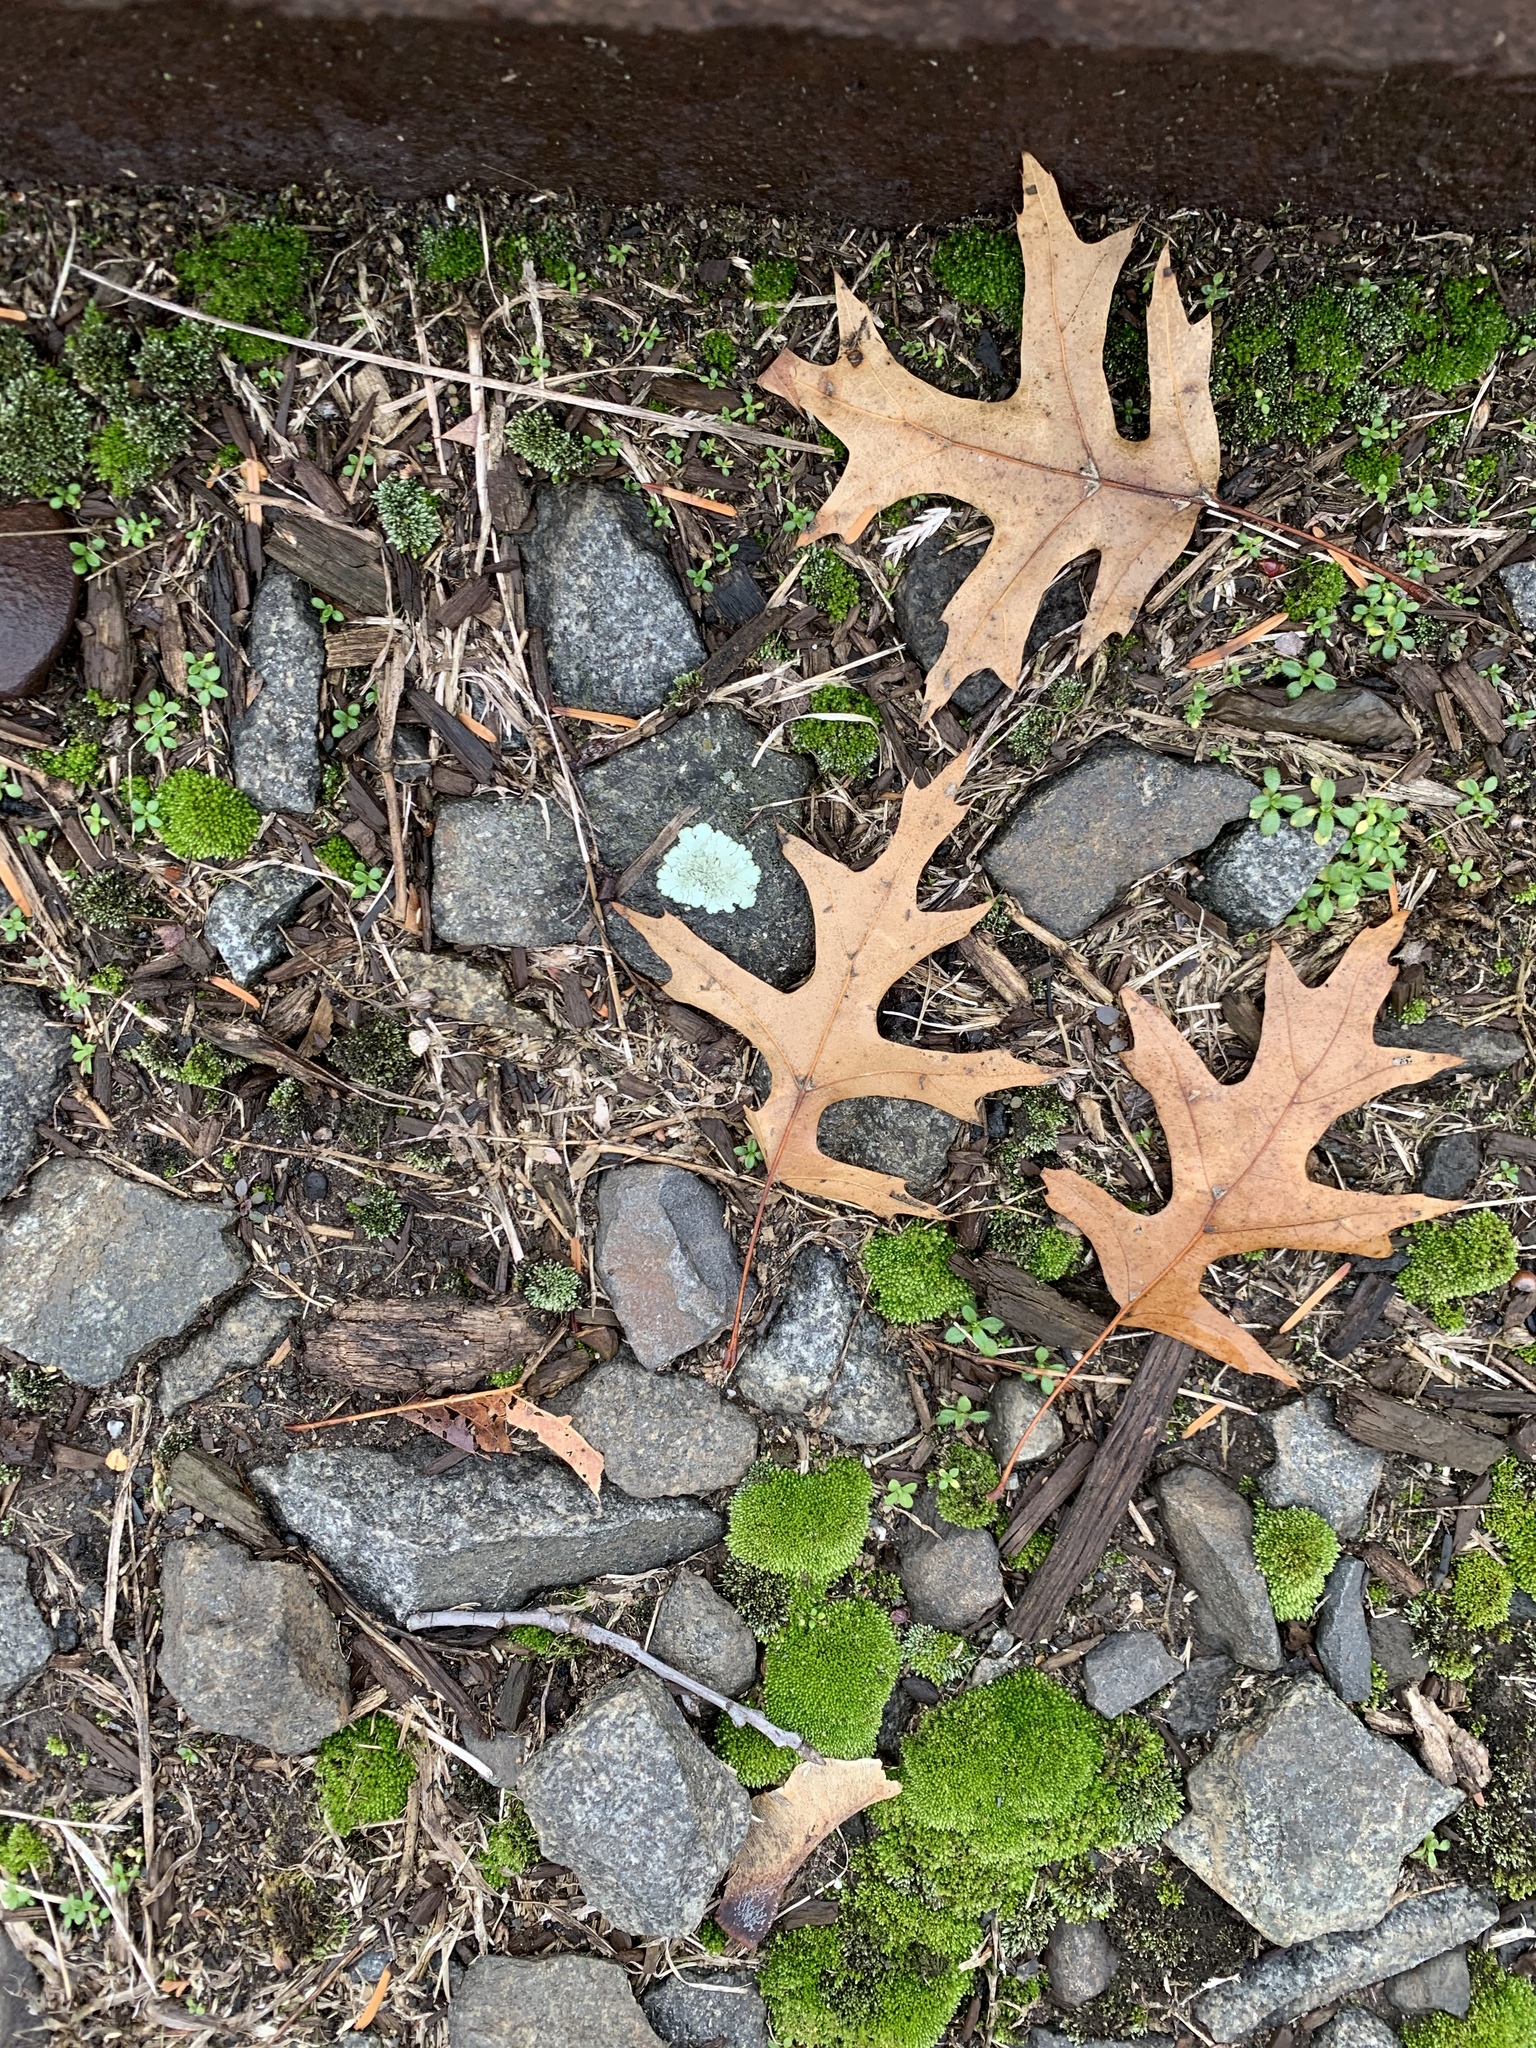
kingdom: Fungi
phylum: Ascomycota
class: Lecanoromycetes
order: Lecanorales
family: Parmeliaceae
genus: Flavoparmelia
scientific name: Flavoparmelia caperata
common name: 40-mile per hour lichen
